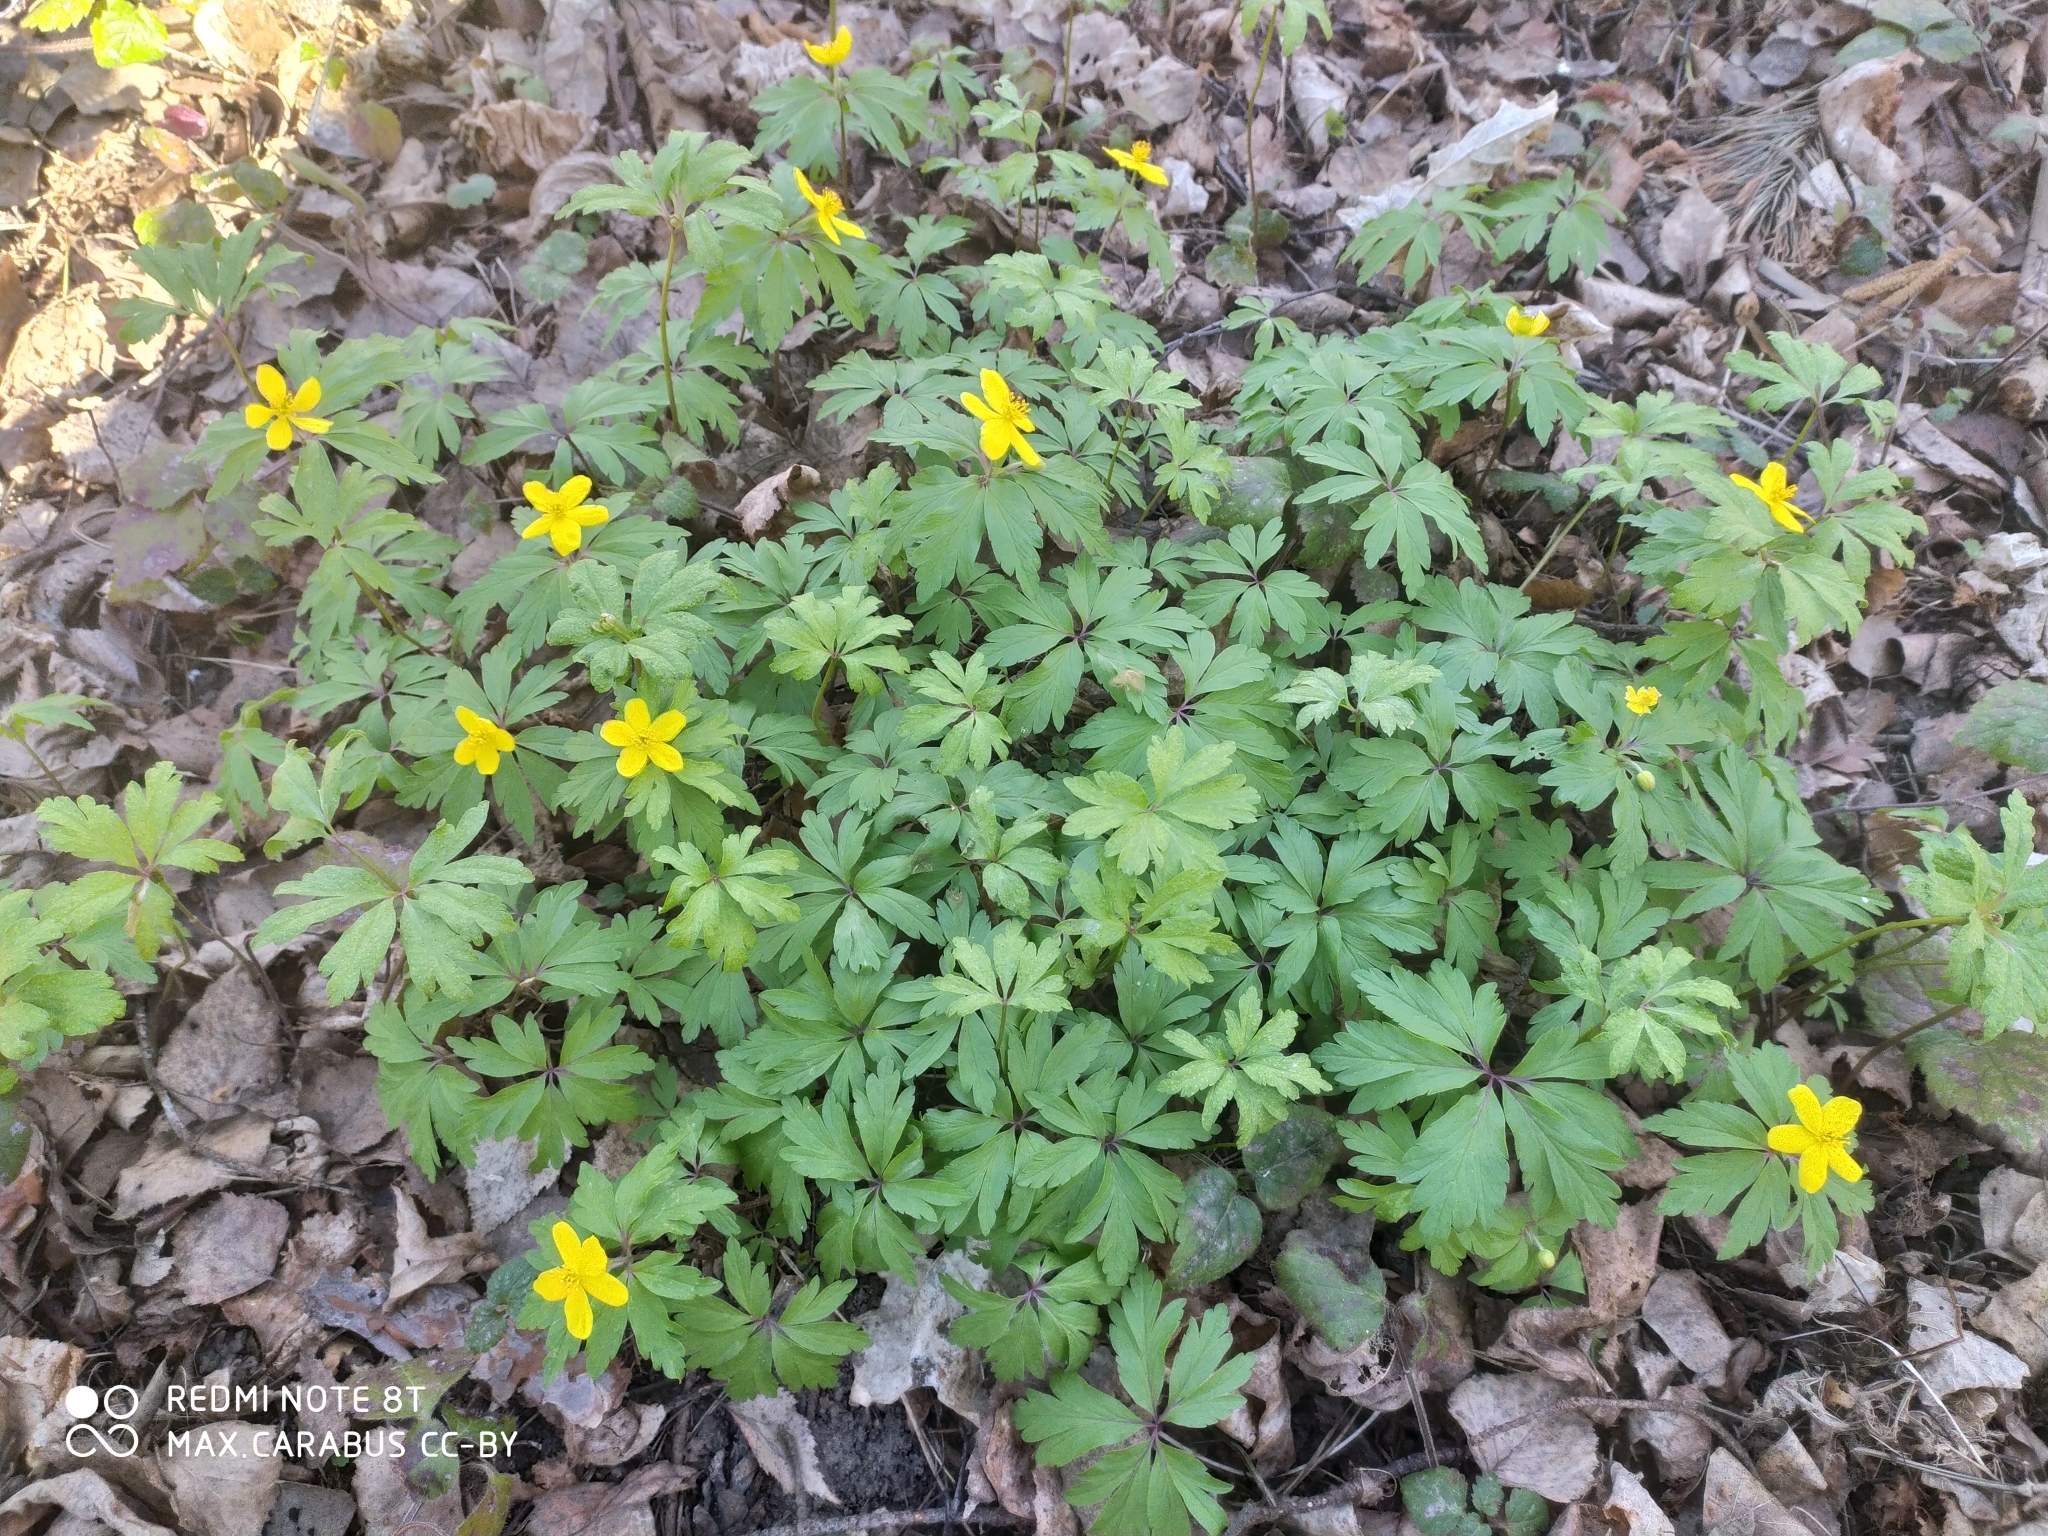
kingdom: Plantae
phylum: Tracheophyta
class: Magnoliopsida
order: Ranunculales
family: Ranunculaceae
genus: Anemone
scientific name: Anemone ranunculoides
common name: Yellow anemone
